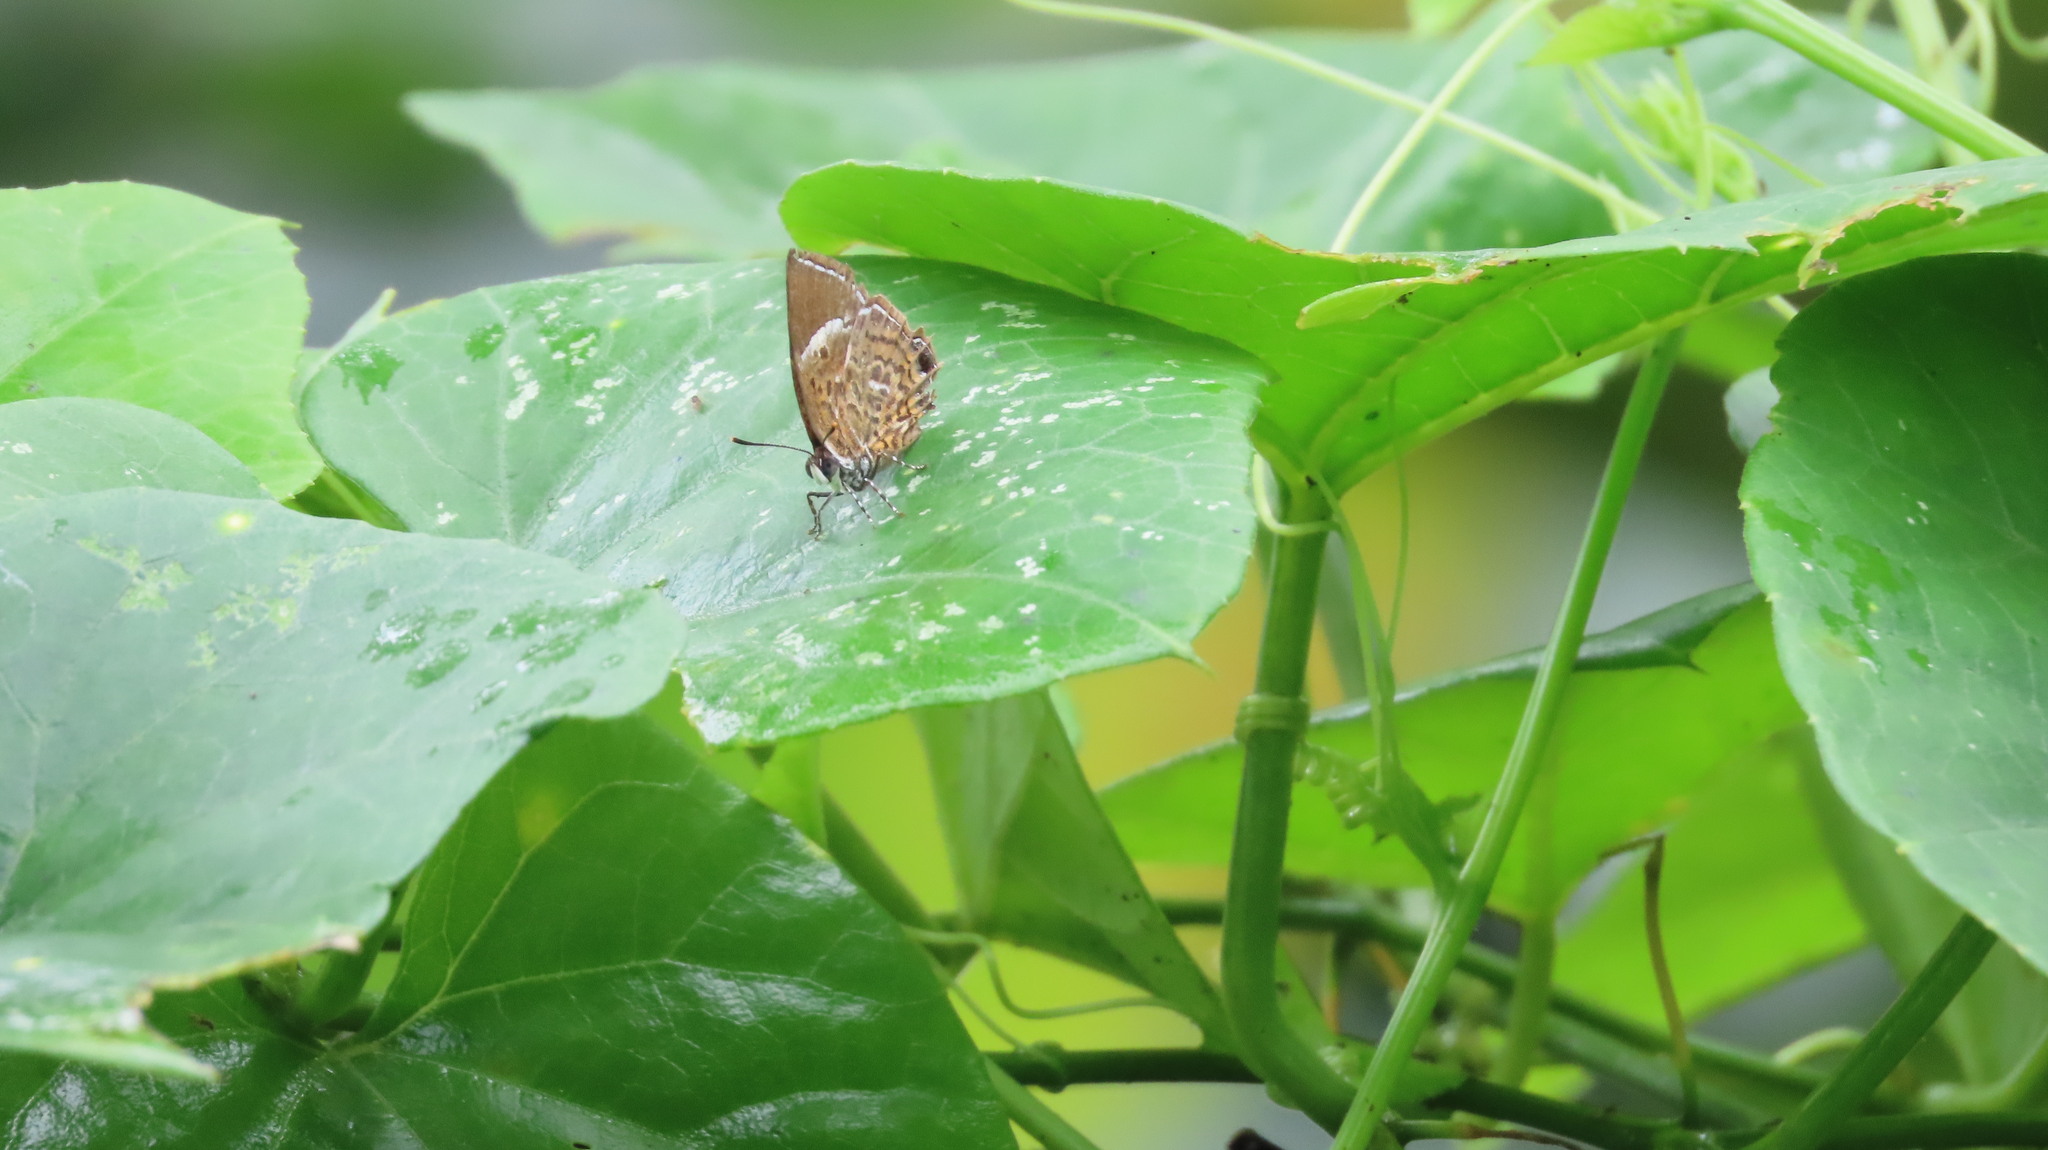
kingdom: Animalia
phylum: Arthropoda
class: Insecta
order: Lepidoptera
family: Lycaenidae
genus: Rathinda
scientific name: Rathinda amor
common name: Monkey puzzle
